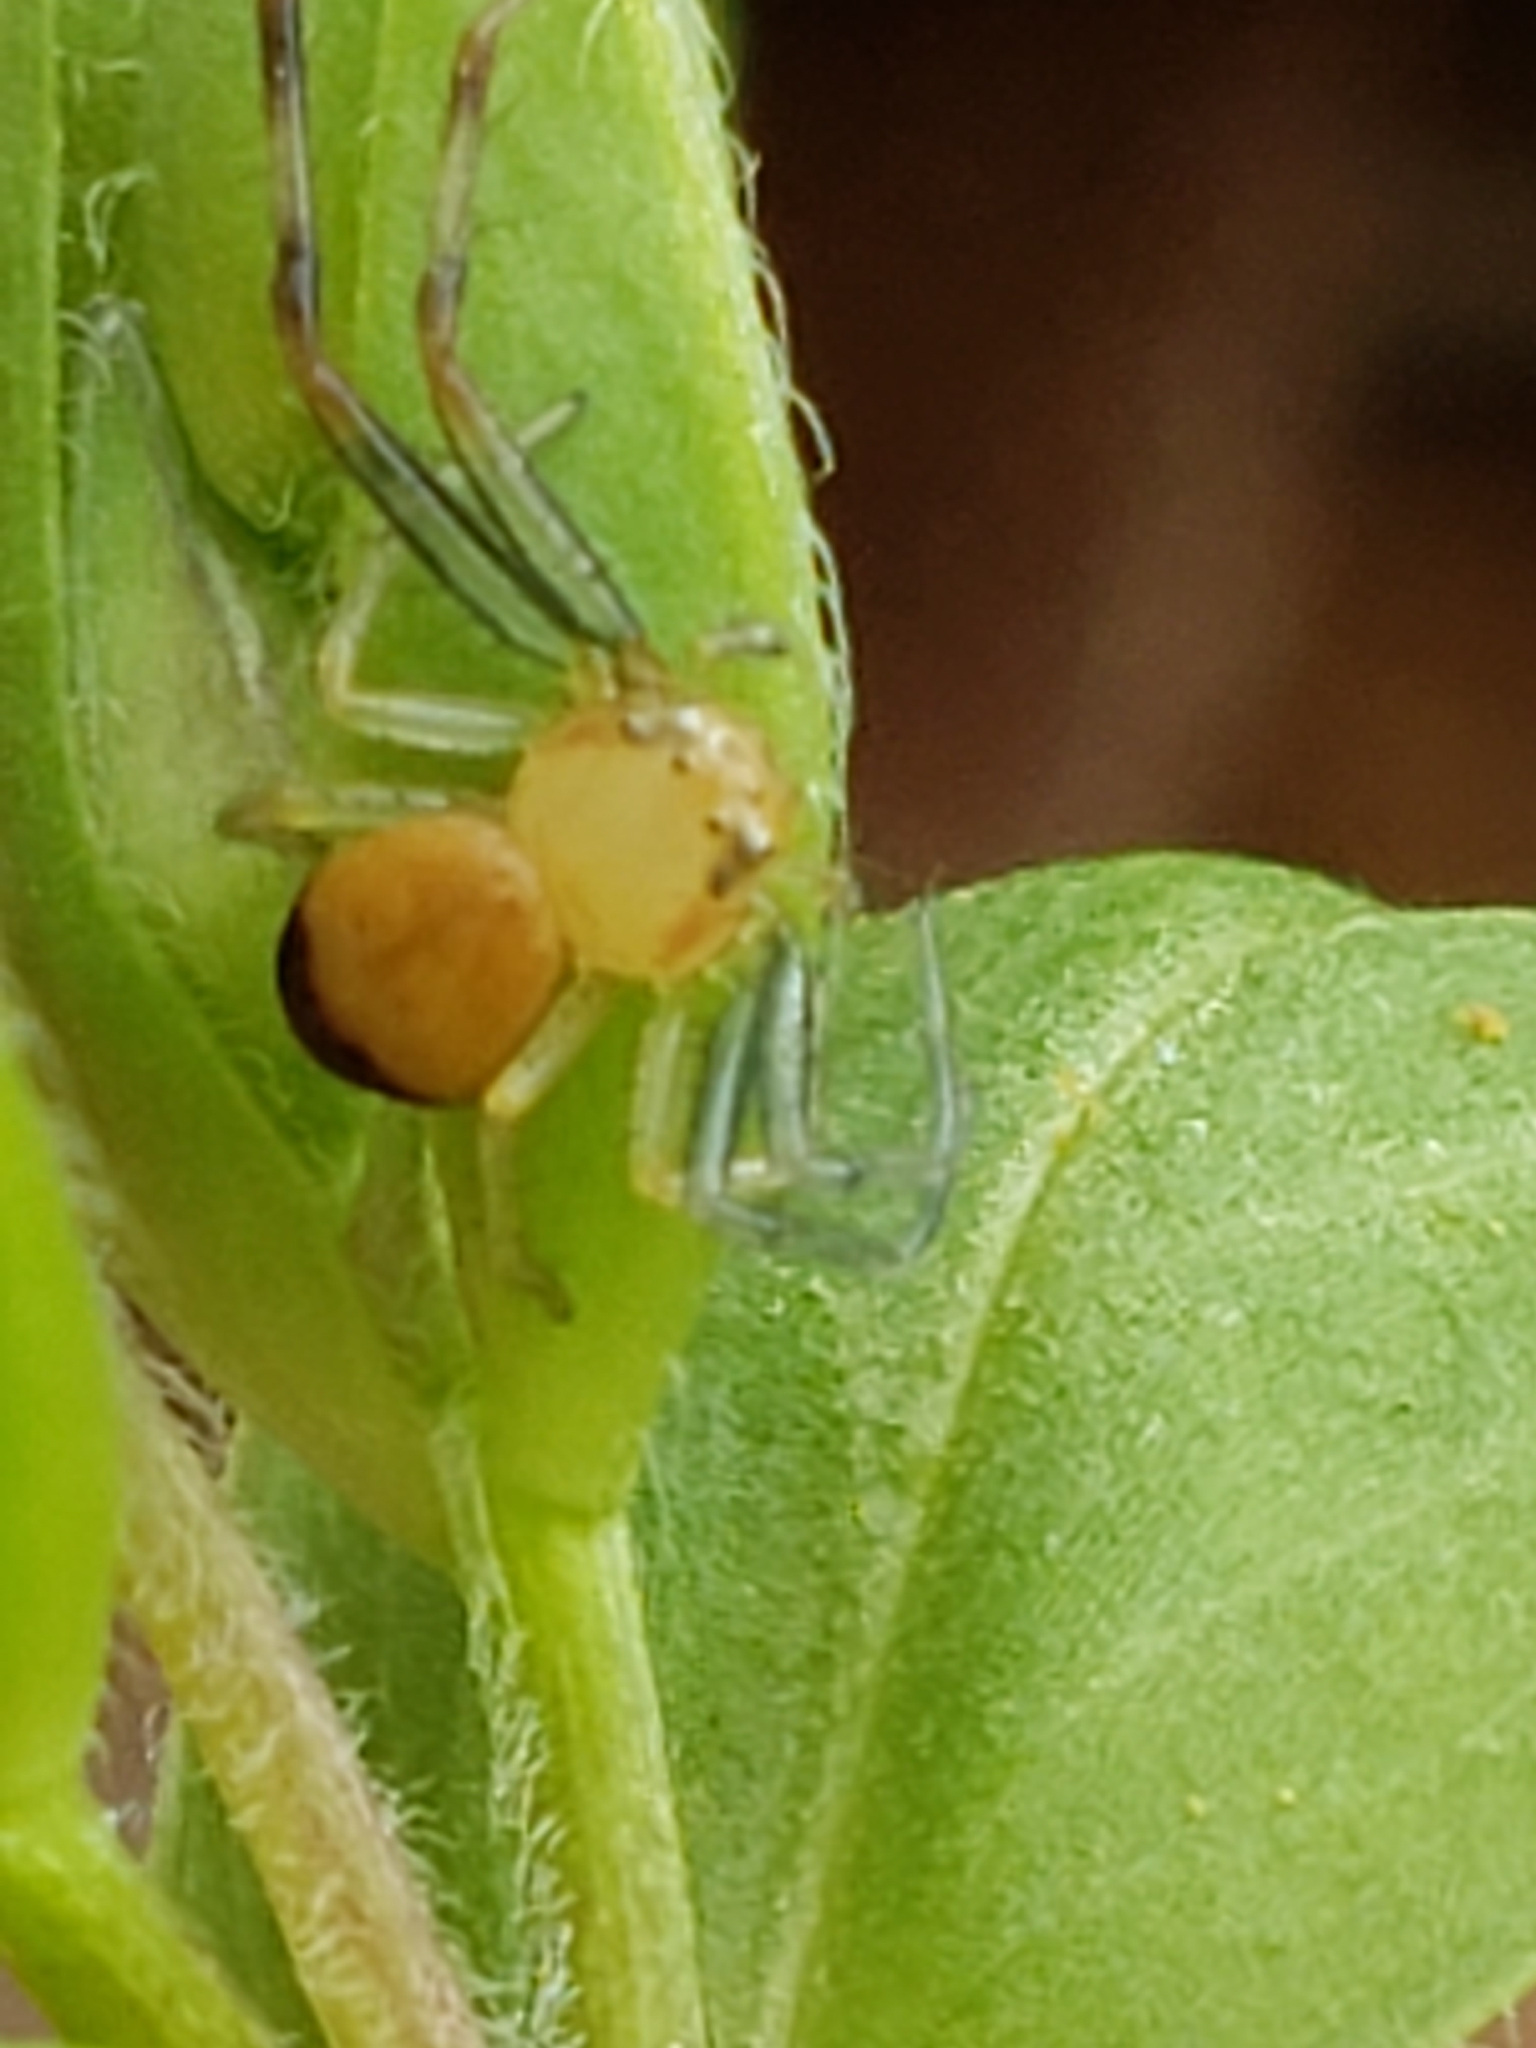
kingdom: Animalia
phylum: Arthropoda
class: Arachnida
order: Araneae
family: Thomisidae
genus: Synema
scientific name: Synema parvulum
